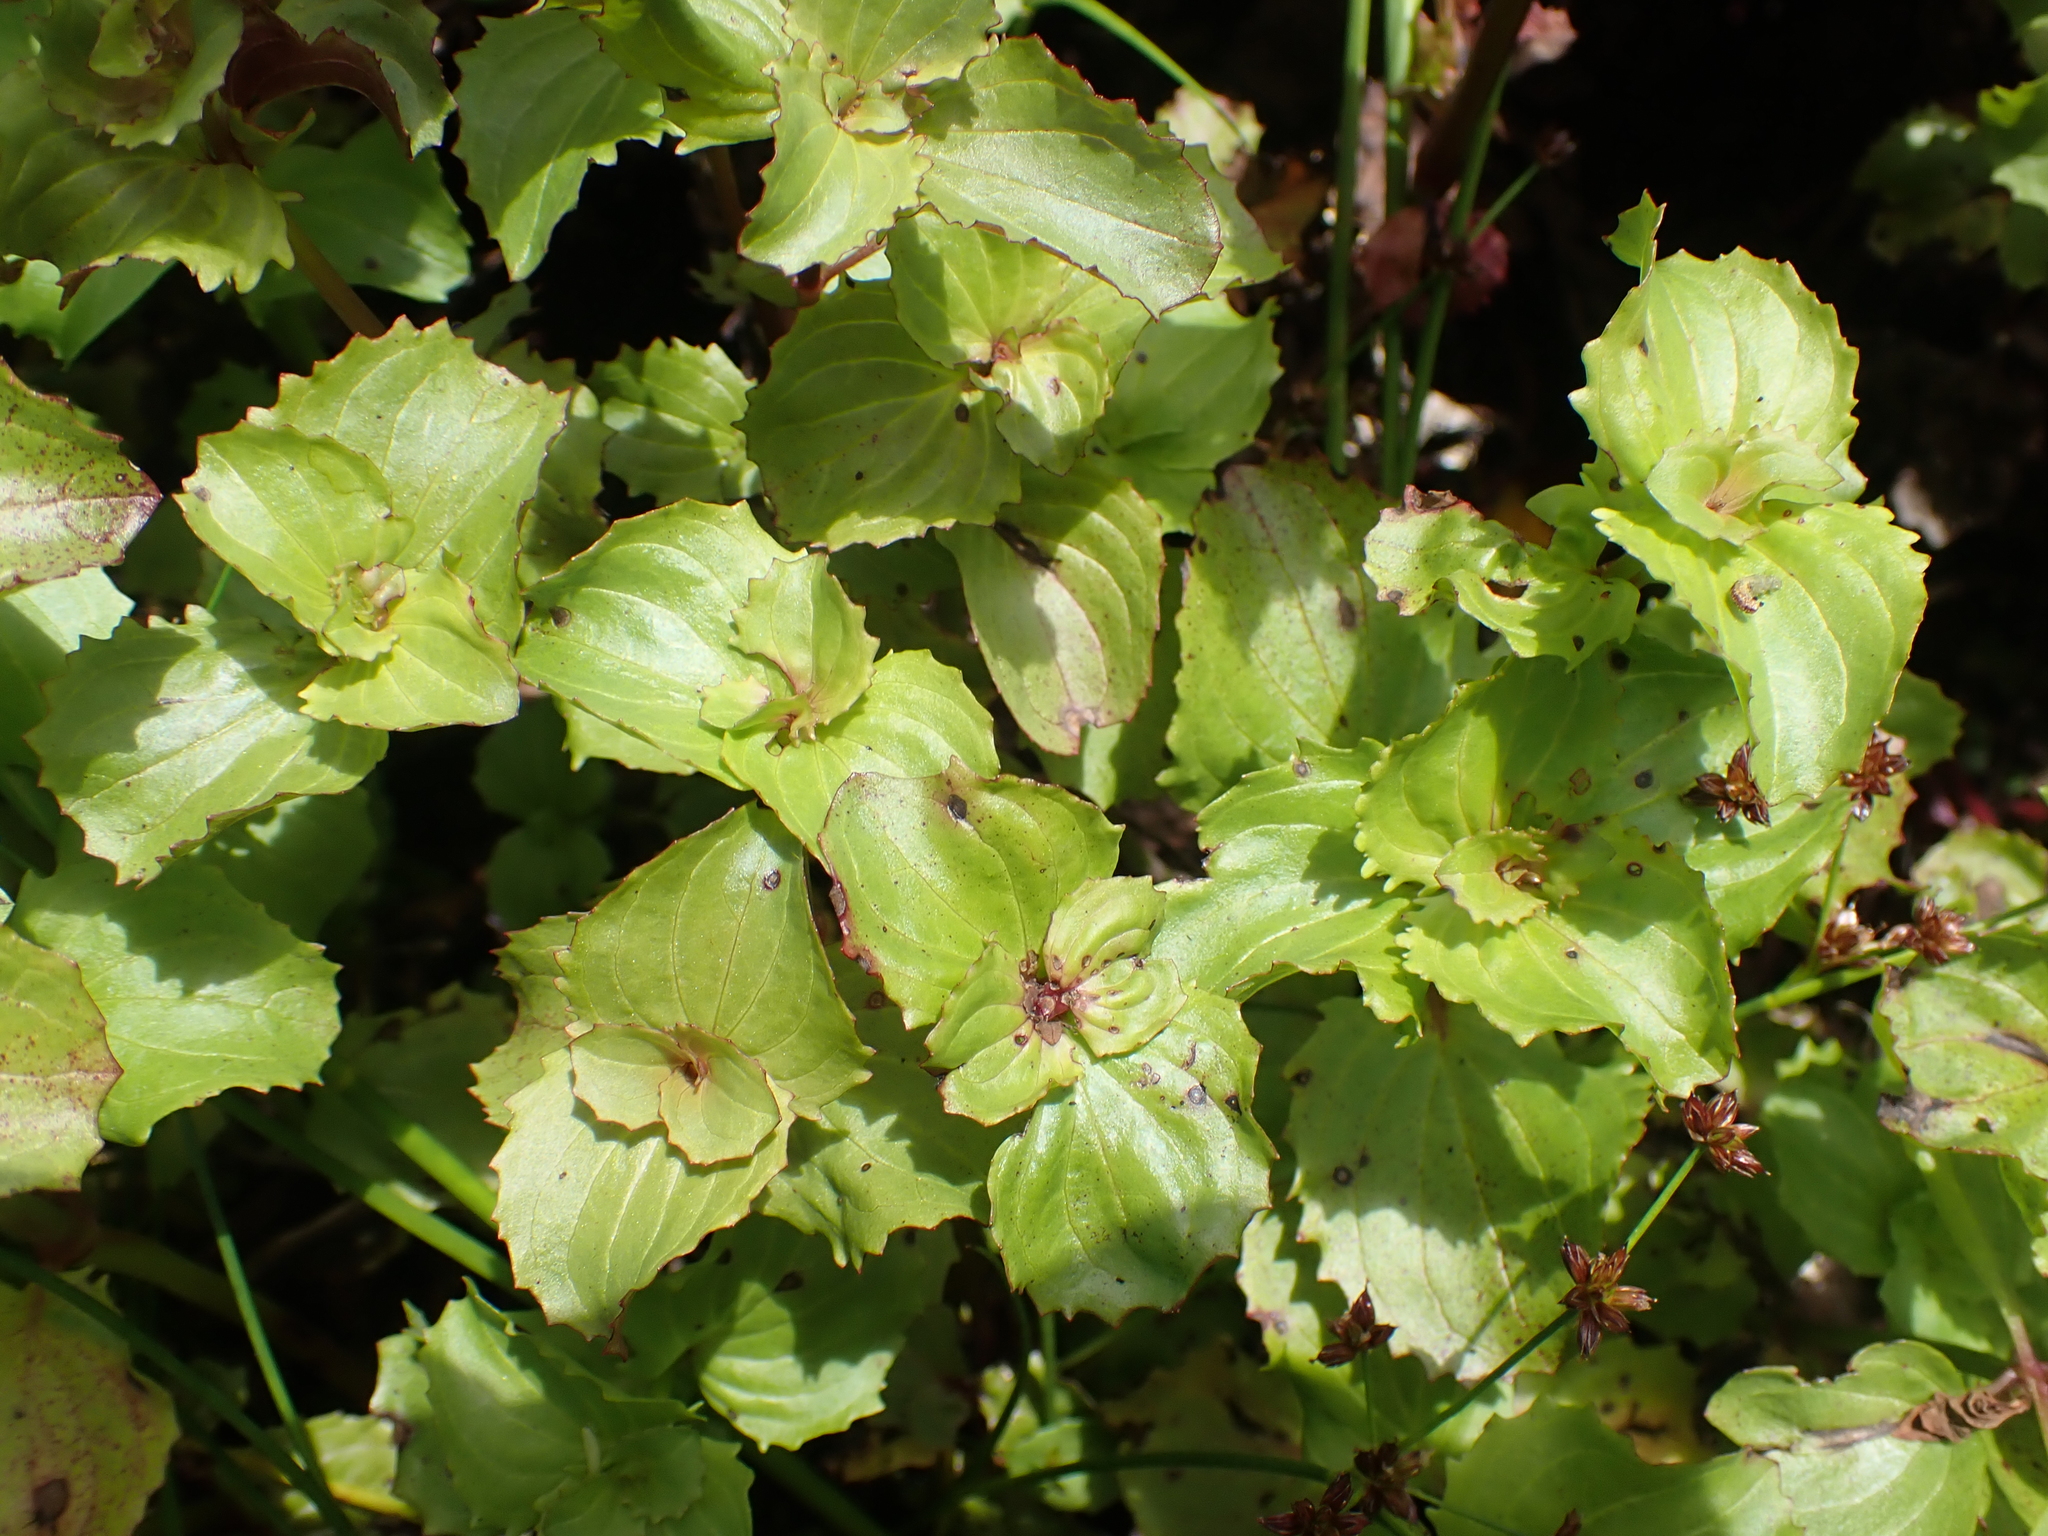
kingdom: Plantae
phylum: Tracheophyta
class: Magnoliopsida
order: Lamiales
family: Phrymaceae
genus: Erythranthe
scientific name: Erythranthe guttata
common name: Monkeyflower
